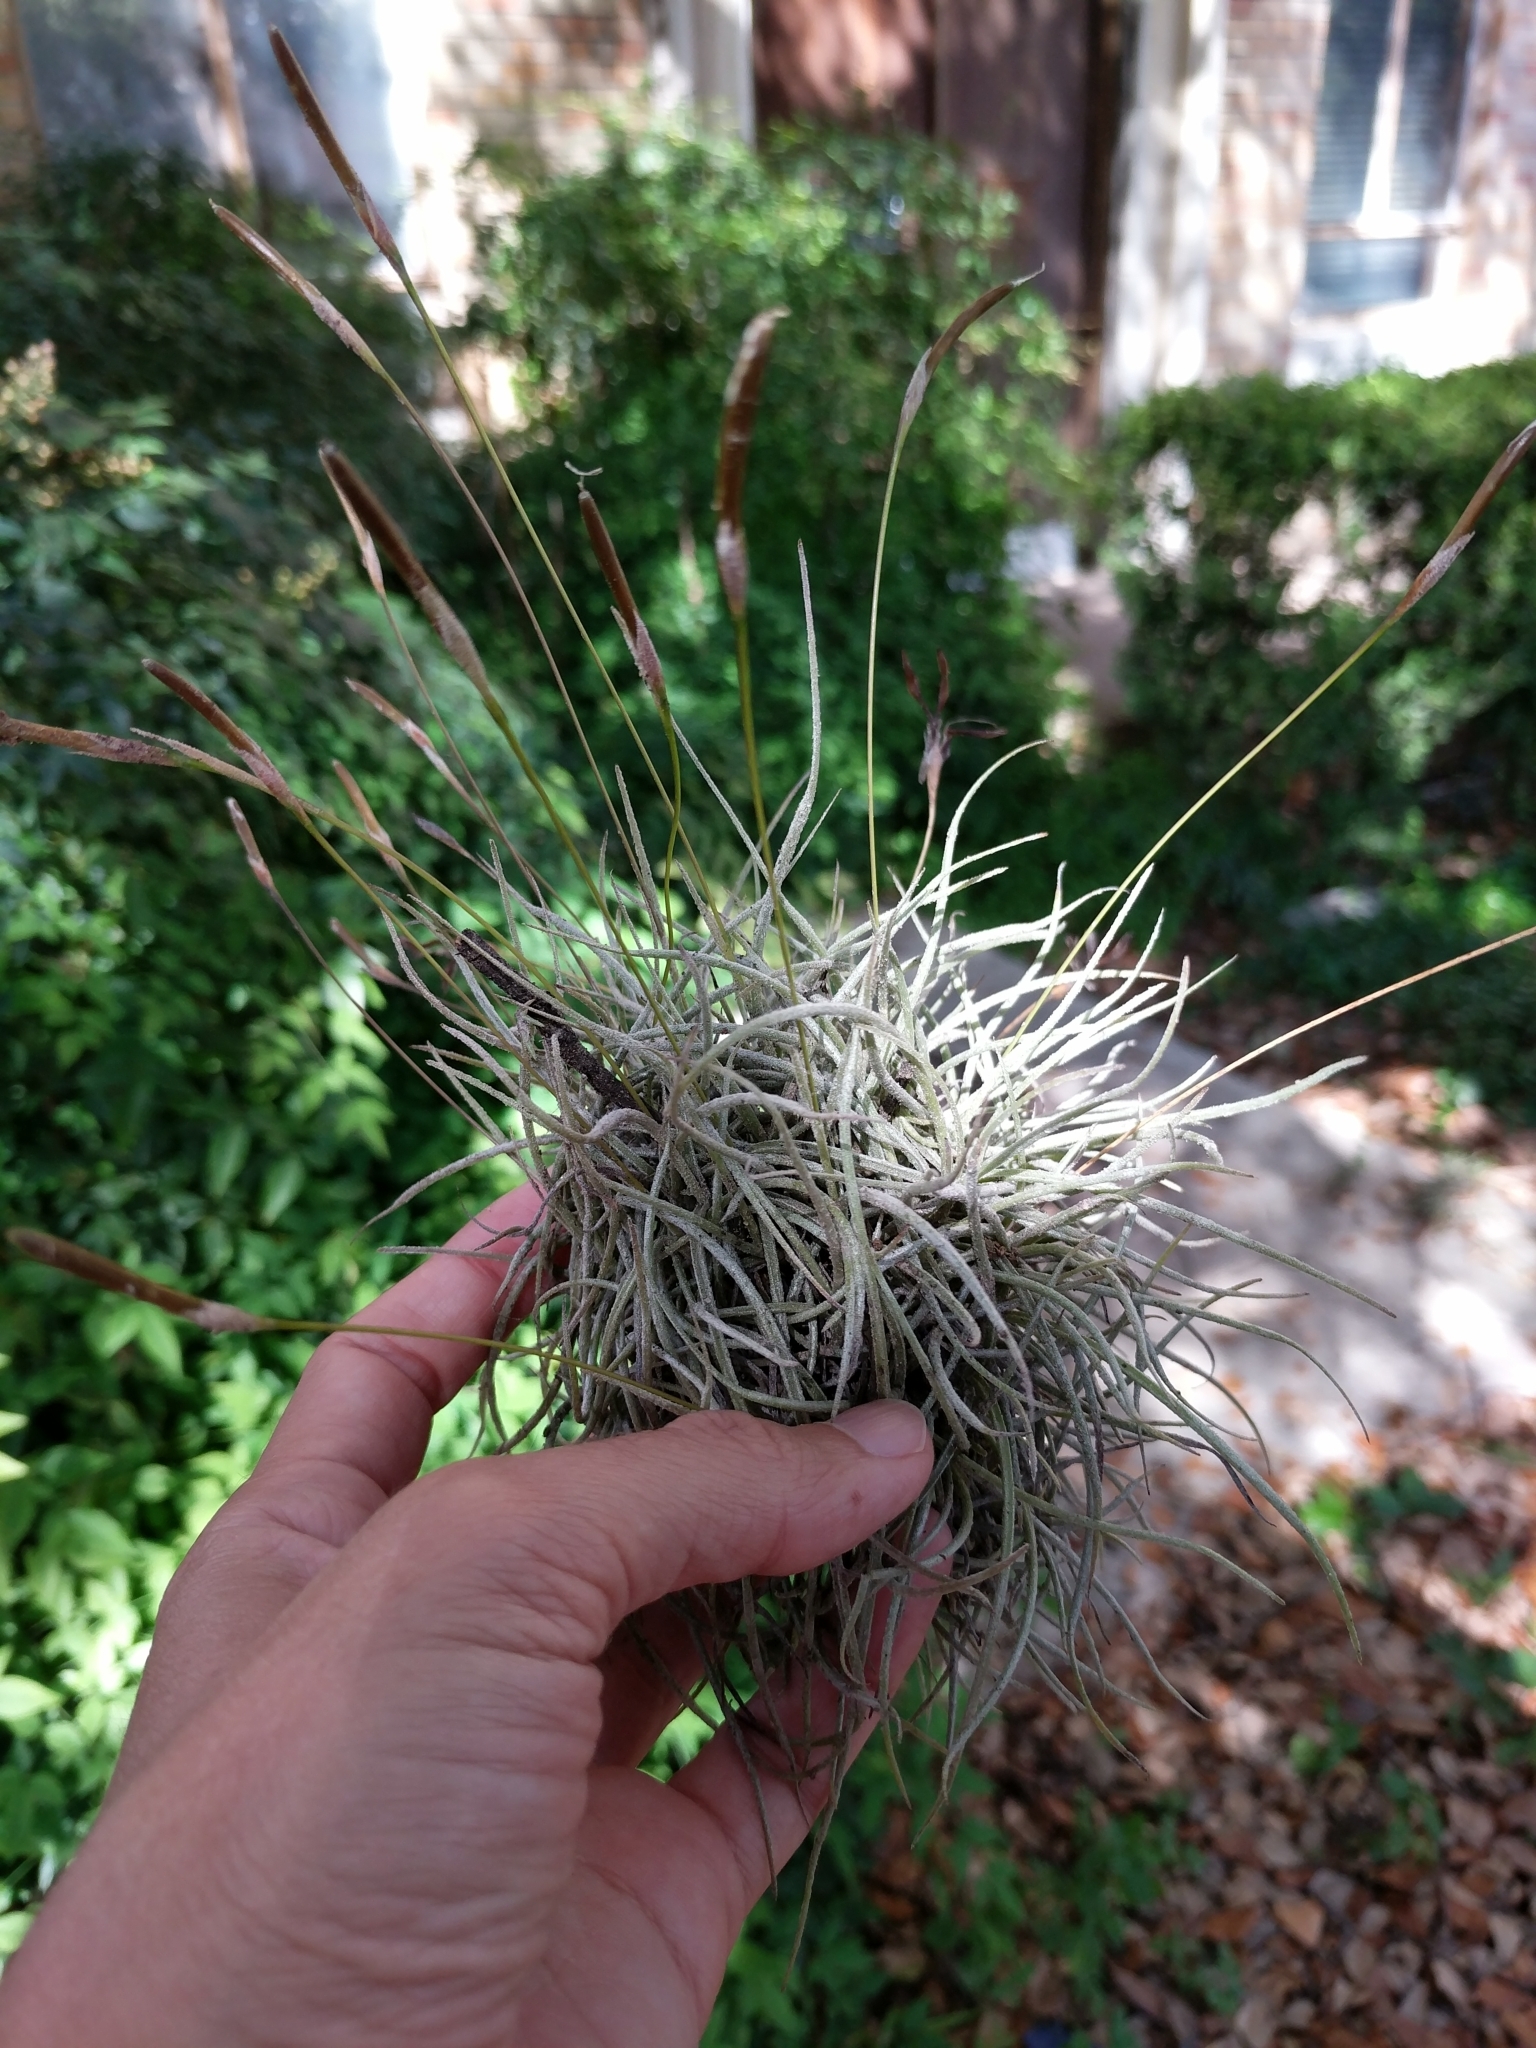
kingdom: Plantae
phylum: Tracheophyta
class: Liliopsida
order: Poales
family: Bromeliaceae
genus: Tillandsia
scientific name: Tillandsia recurvata
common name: Small ballmoss
